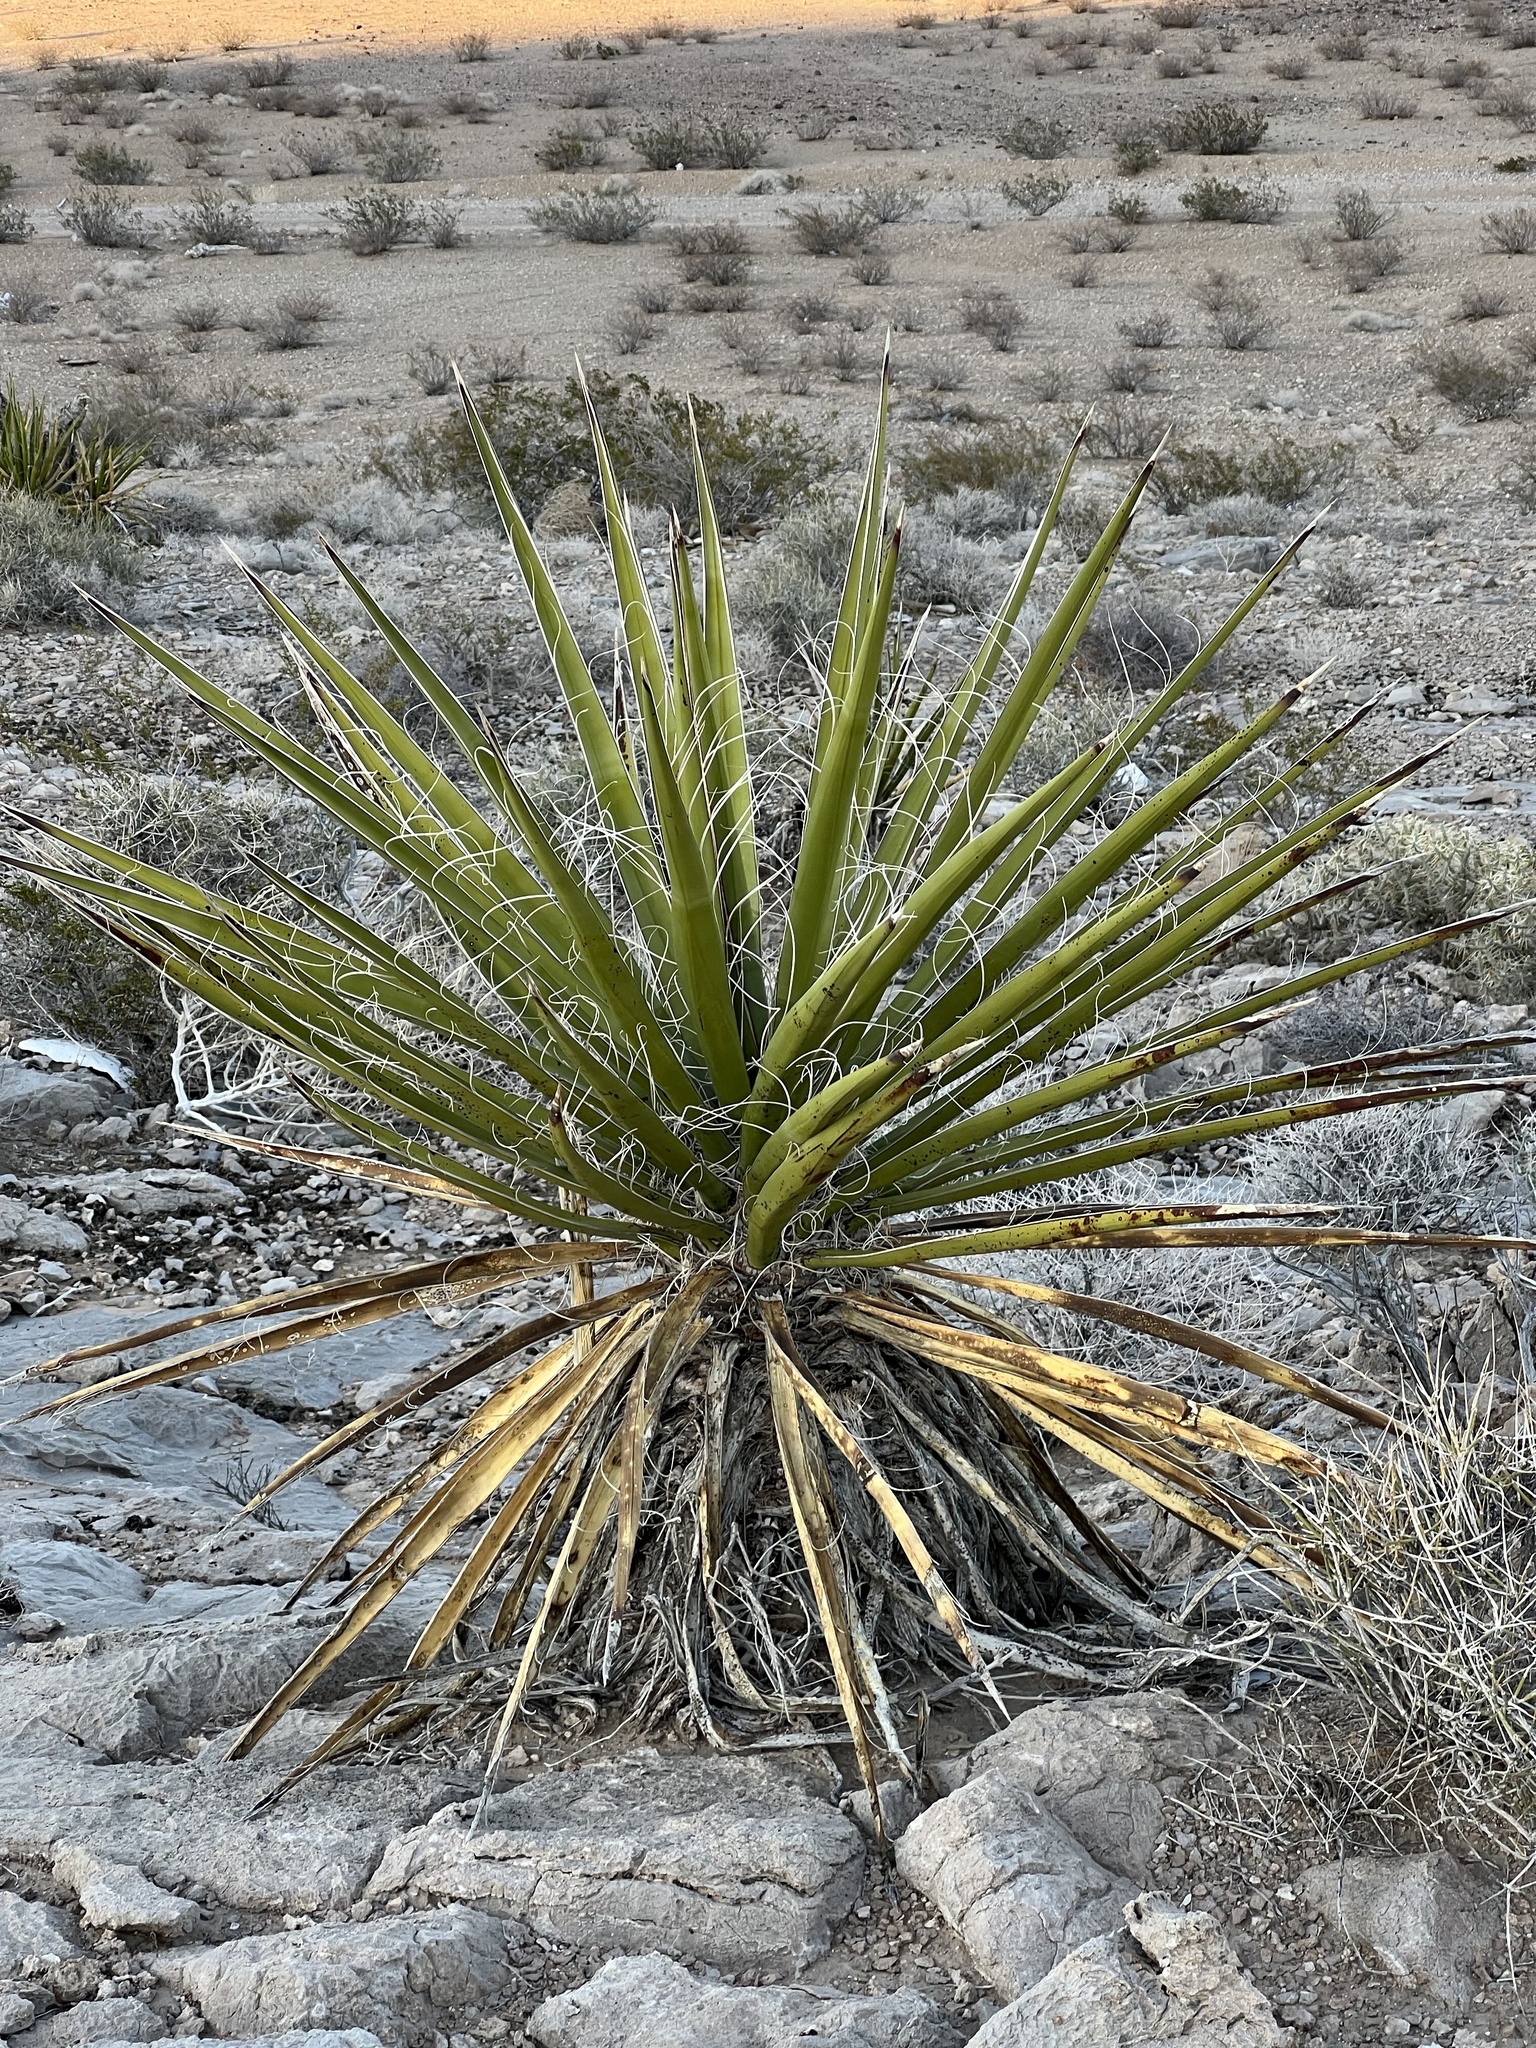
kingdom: Plantae
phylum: Tracheophyta
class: Liliopsida
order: Asparagales
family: Asparagaceae
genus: Yucca
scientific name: Yucca schidigera
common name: Mojave yucca
